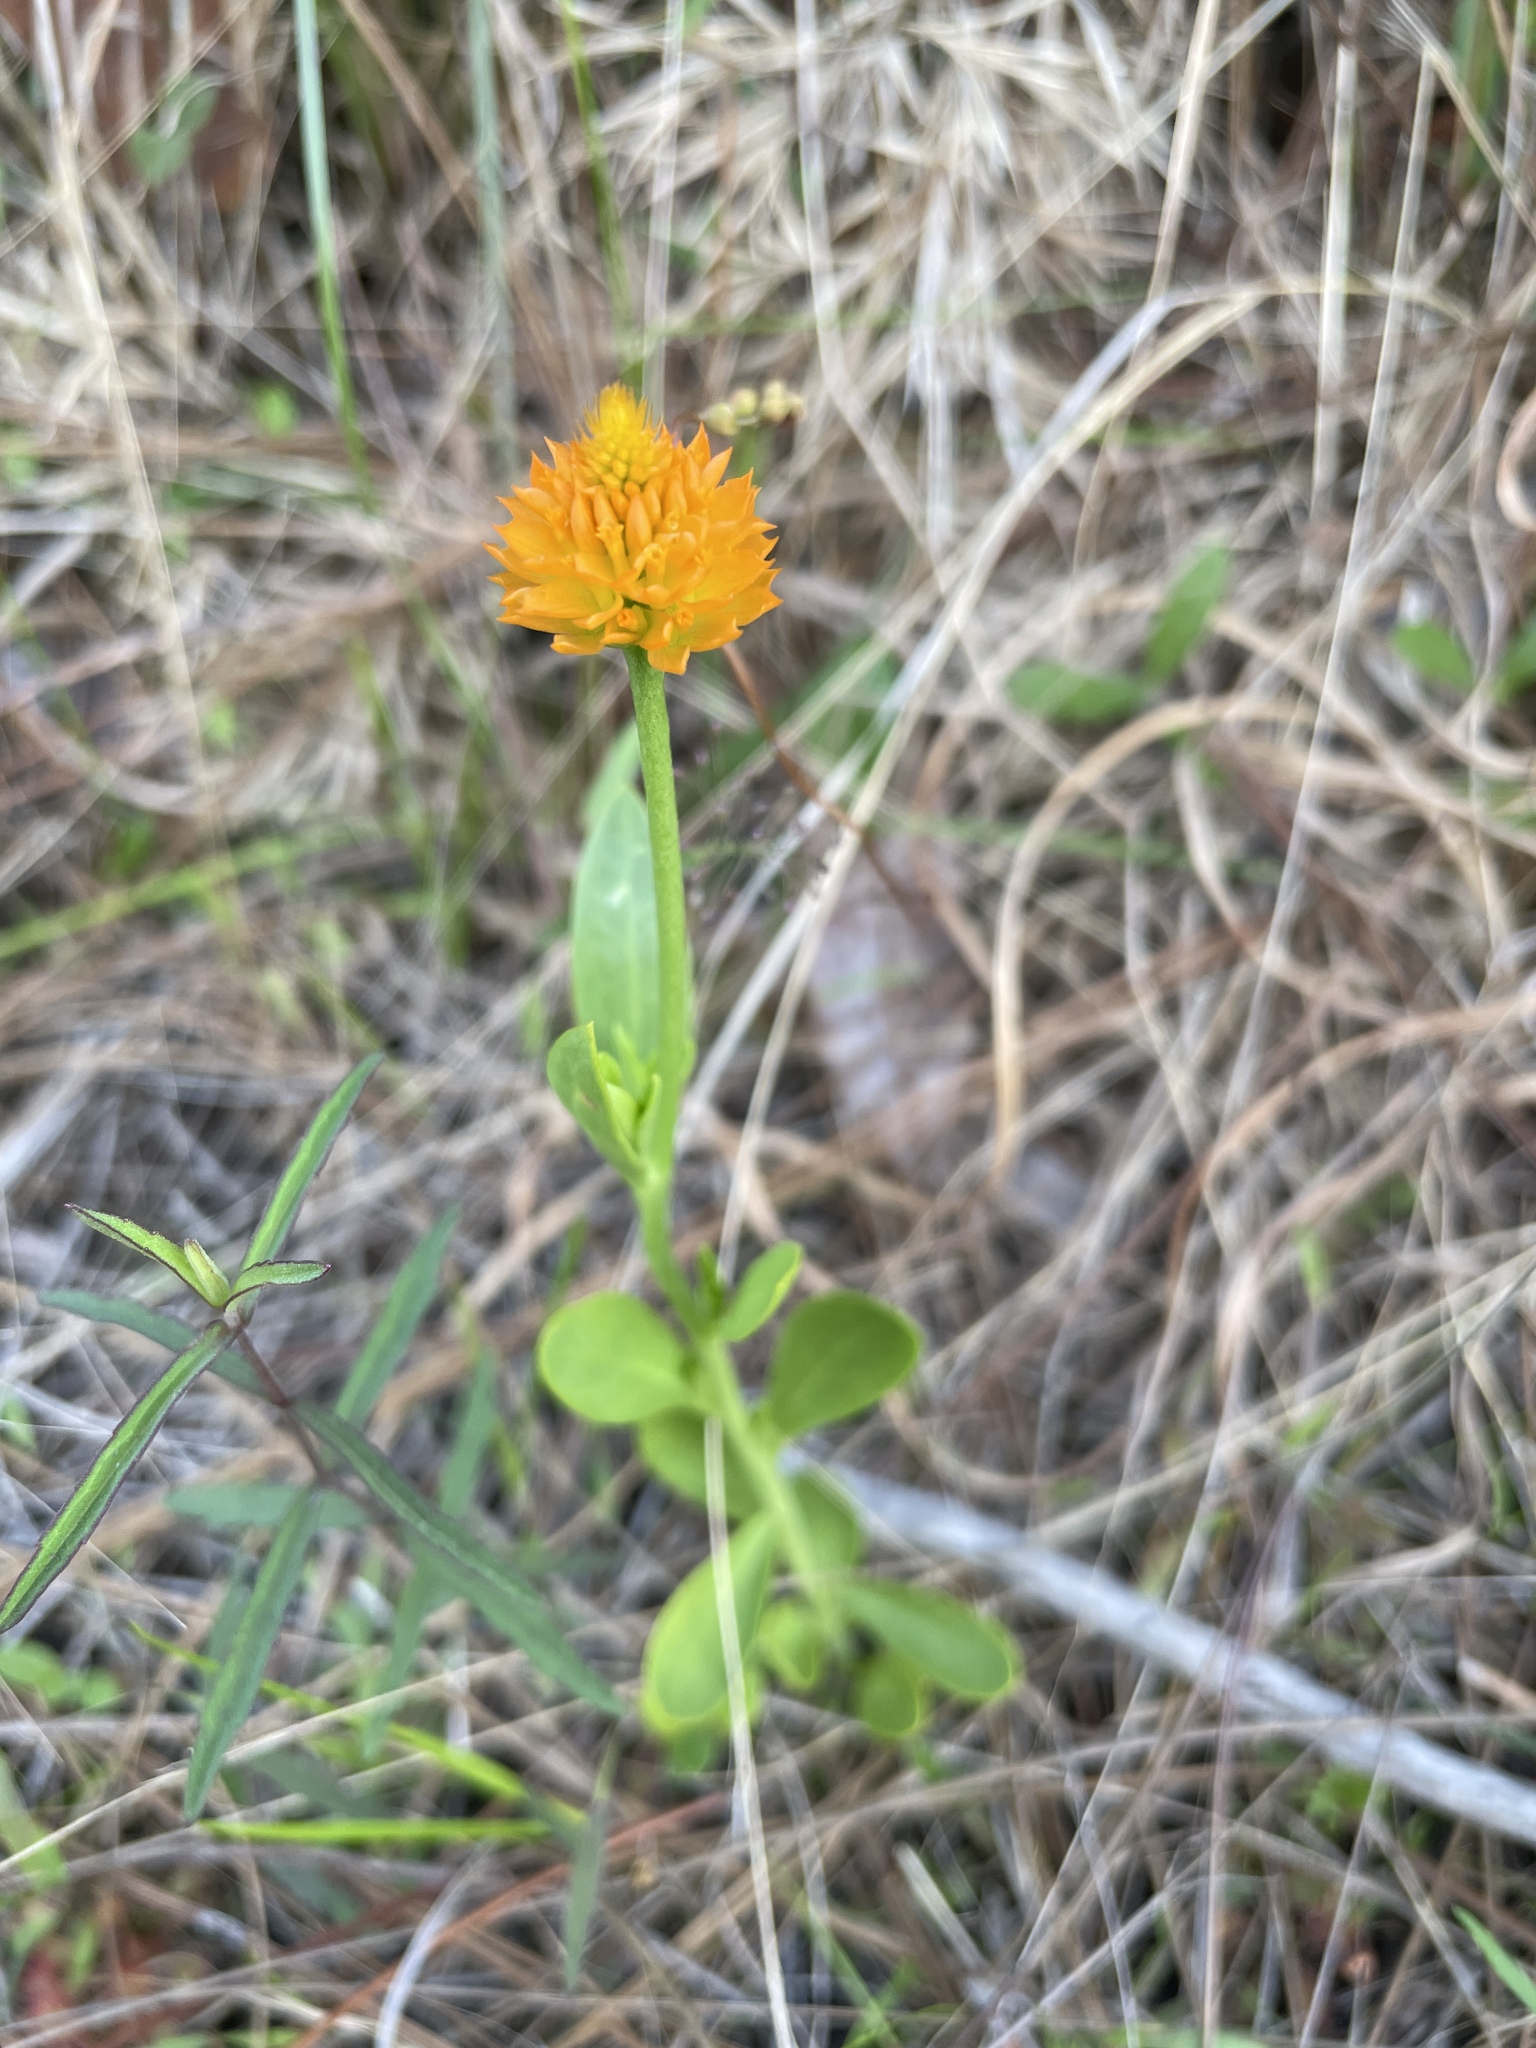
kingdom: Plantae
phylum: Tracheophyta
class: Magnoliopsida
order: Fabales
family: Polygalaceae
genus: Polygala
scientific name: Polygala lutea
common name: Orange milkwort
